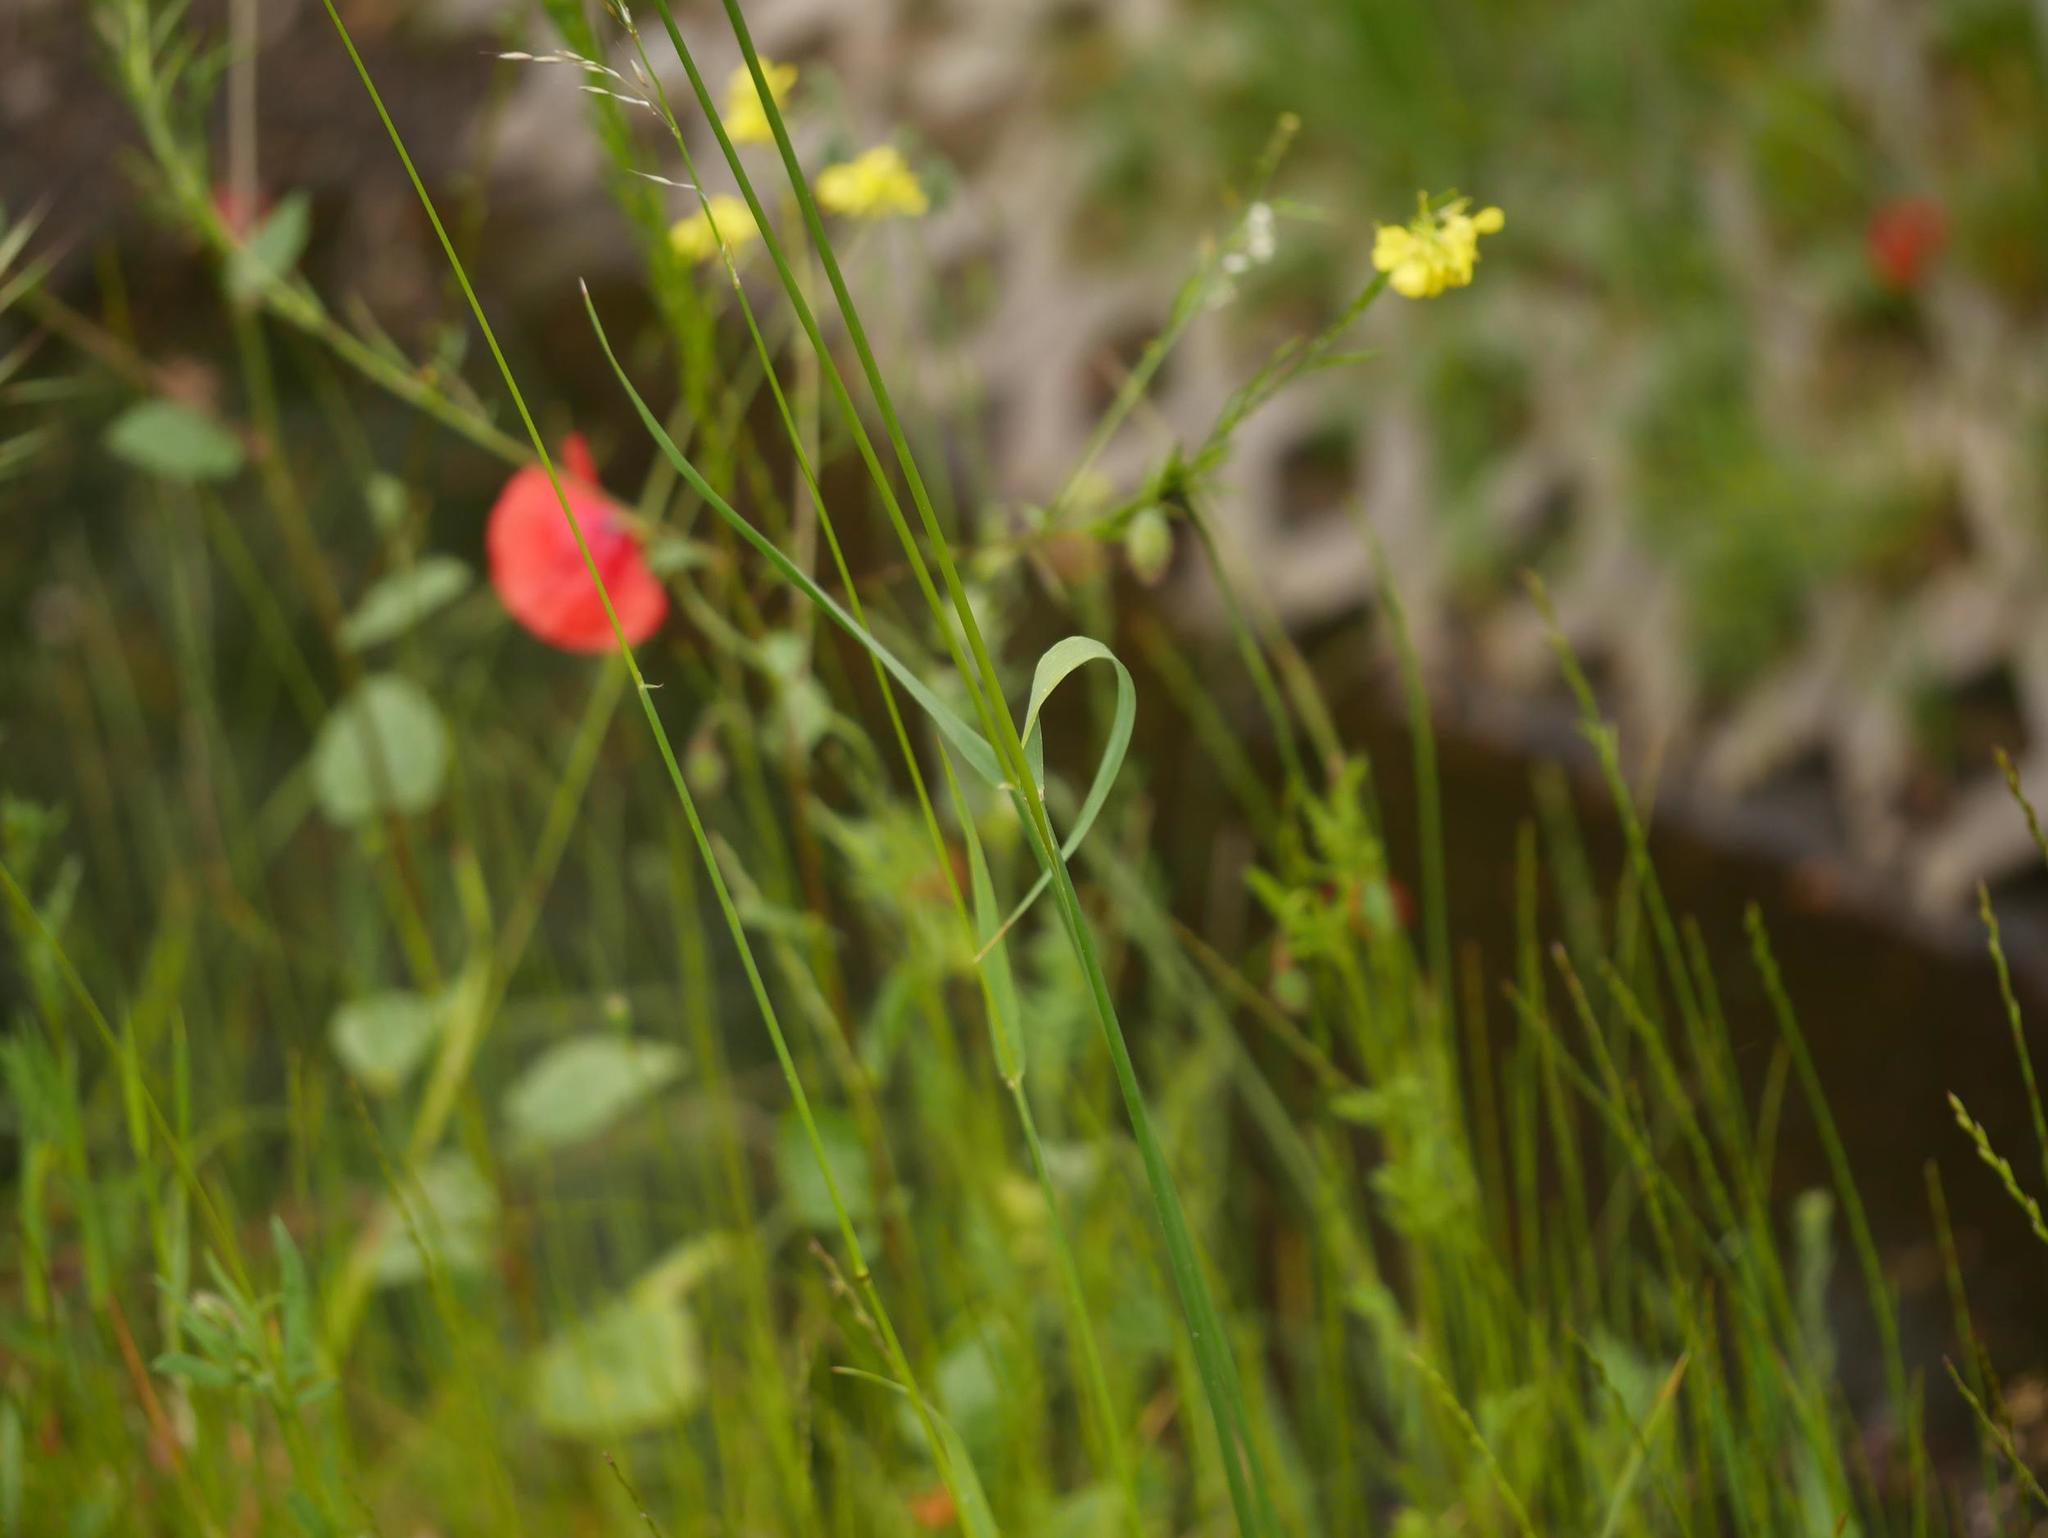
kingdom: Plantae
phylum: Tracheophyta
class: Liliopsida
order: Poales
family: Poaceae
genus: Arrhenatherum
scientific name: Arrhenatherum elatius
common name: Tall oatgrass
